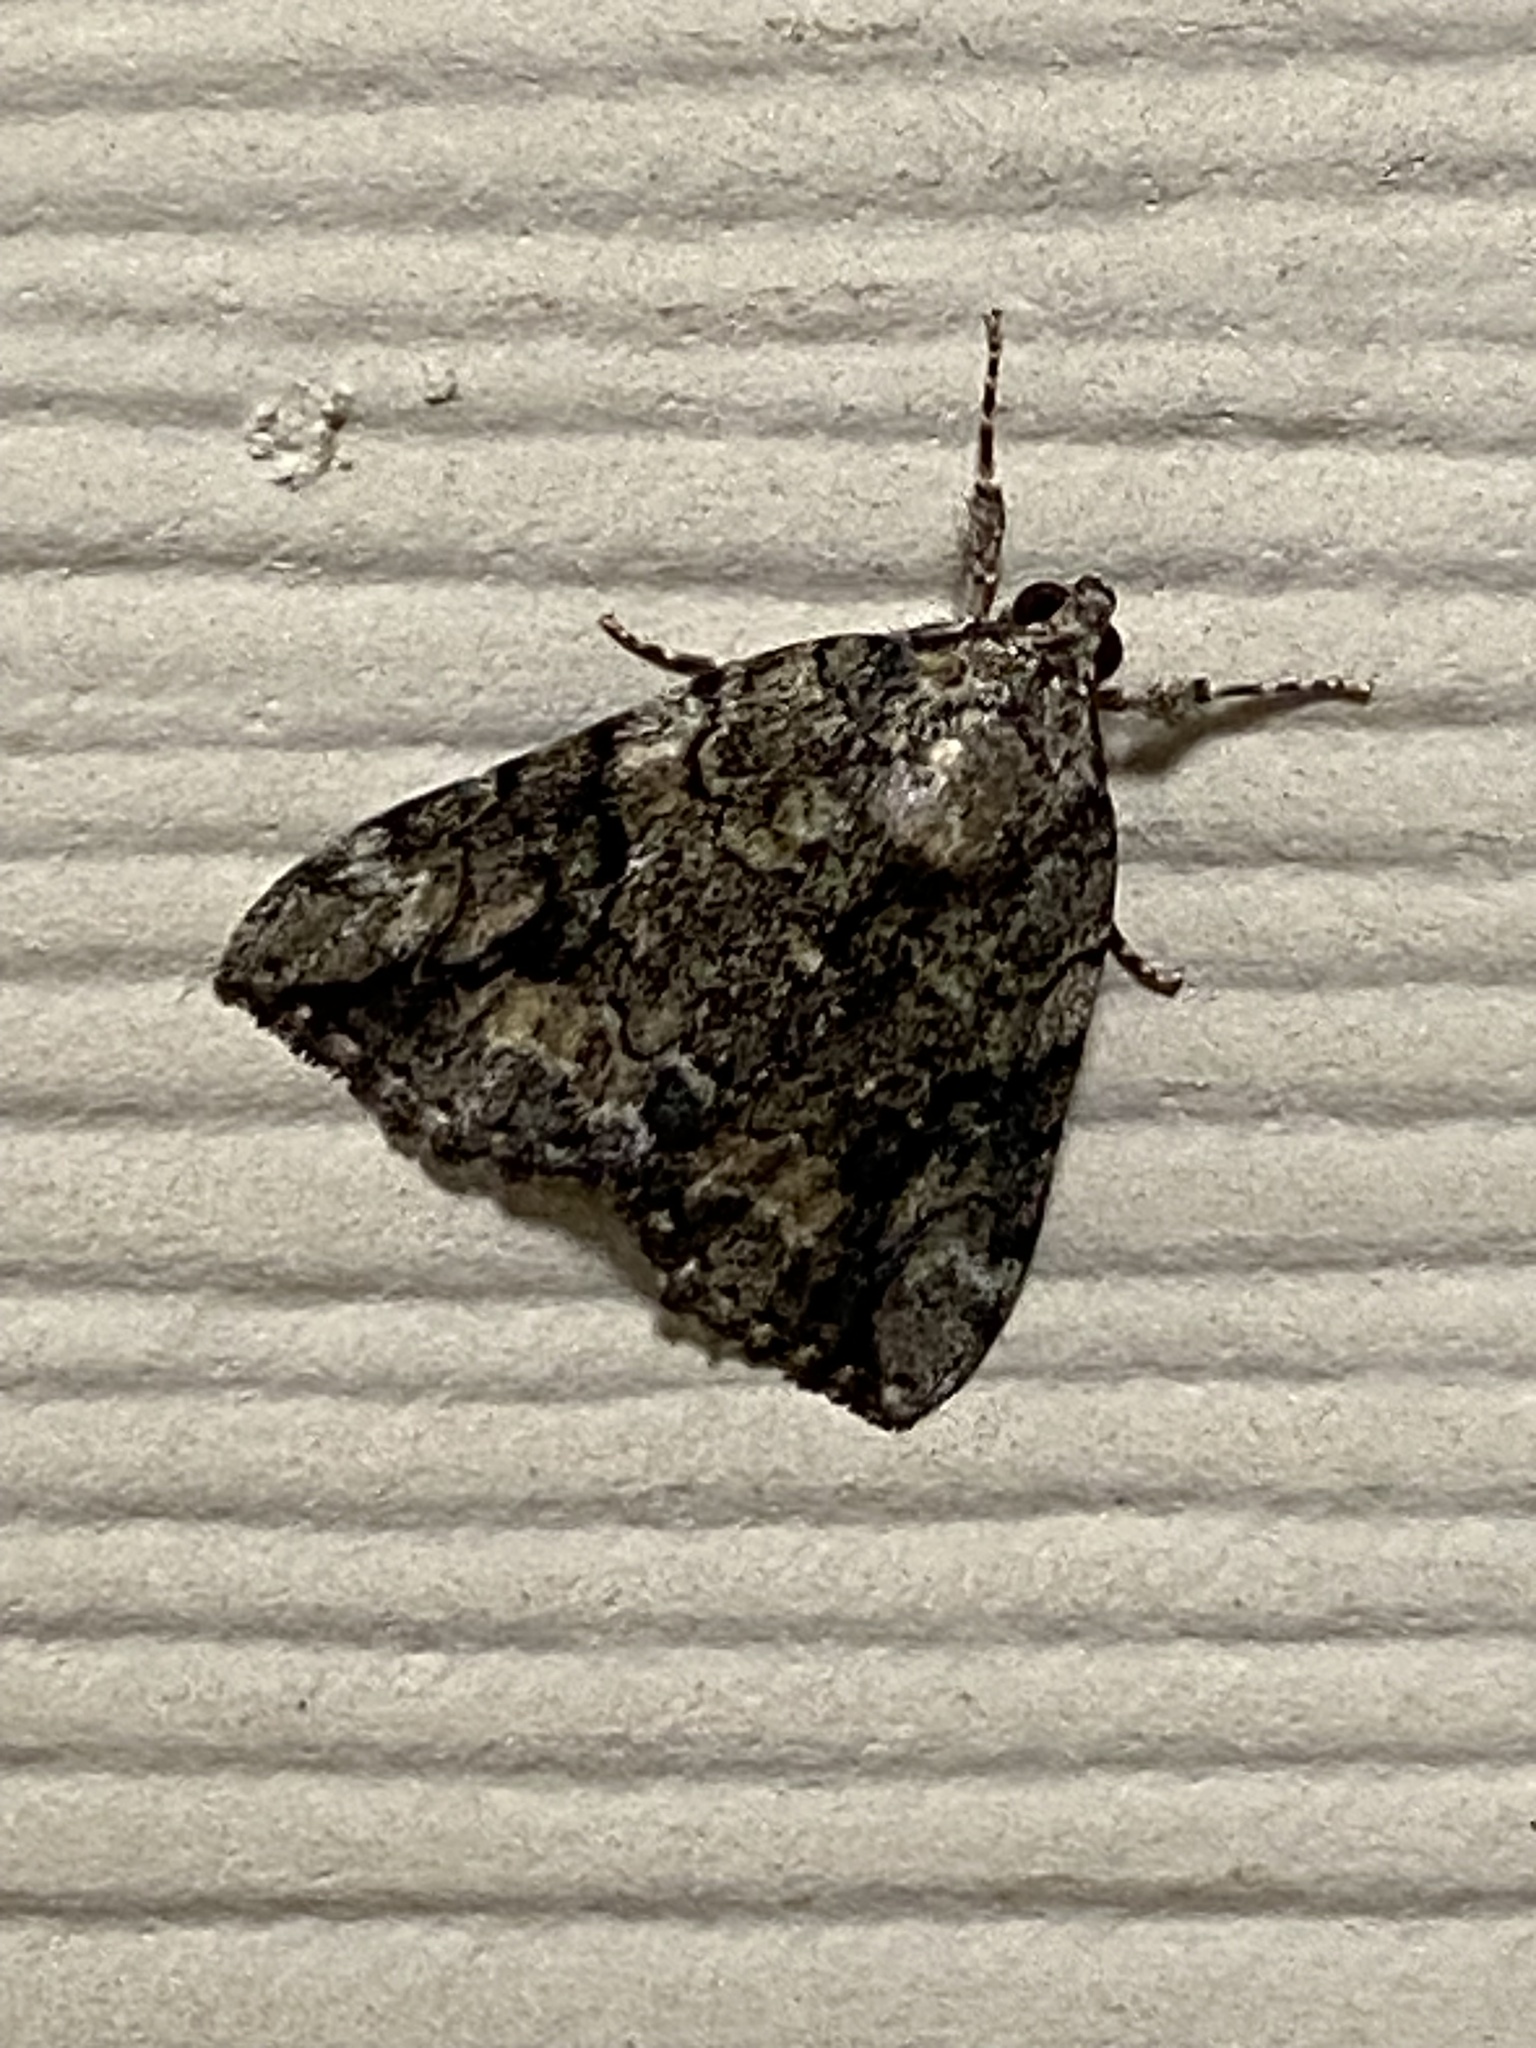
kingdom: Animalia
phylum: Arthropoda
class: Insecta
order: Lepidoptera
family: Erebidae
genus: Catocala
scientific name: Catocala micronympha
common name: Little nymph underwing
